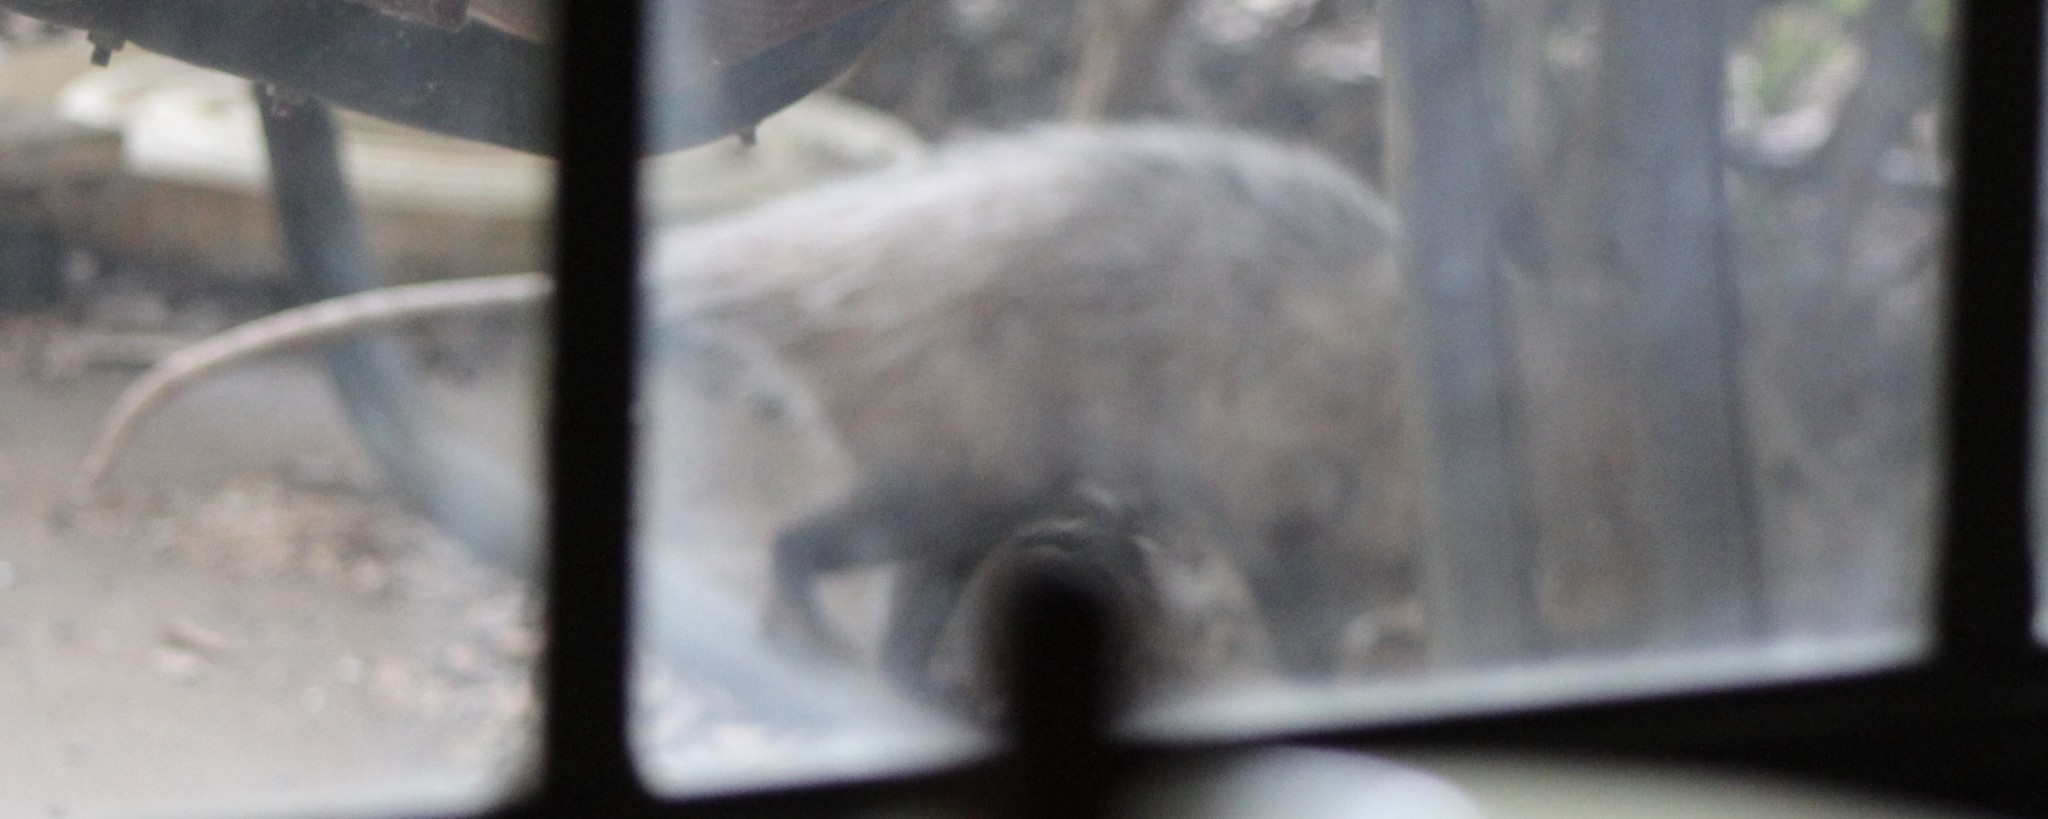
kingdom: Animalia
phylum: Chordata
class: Mammalia
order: Didelphimorphia
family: Didelphidae
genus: Didelphis
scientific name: Didelphis virginiana
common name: Virginia opossum
